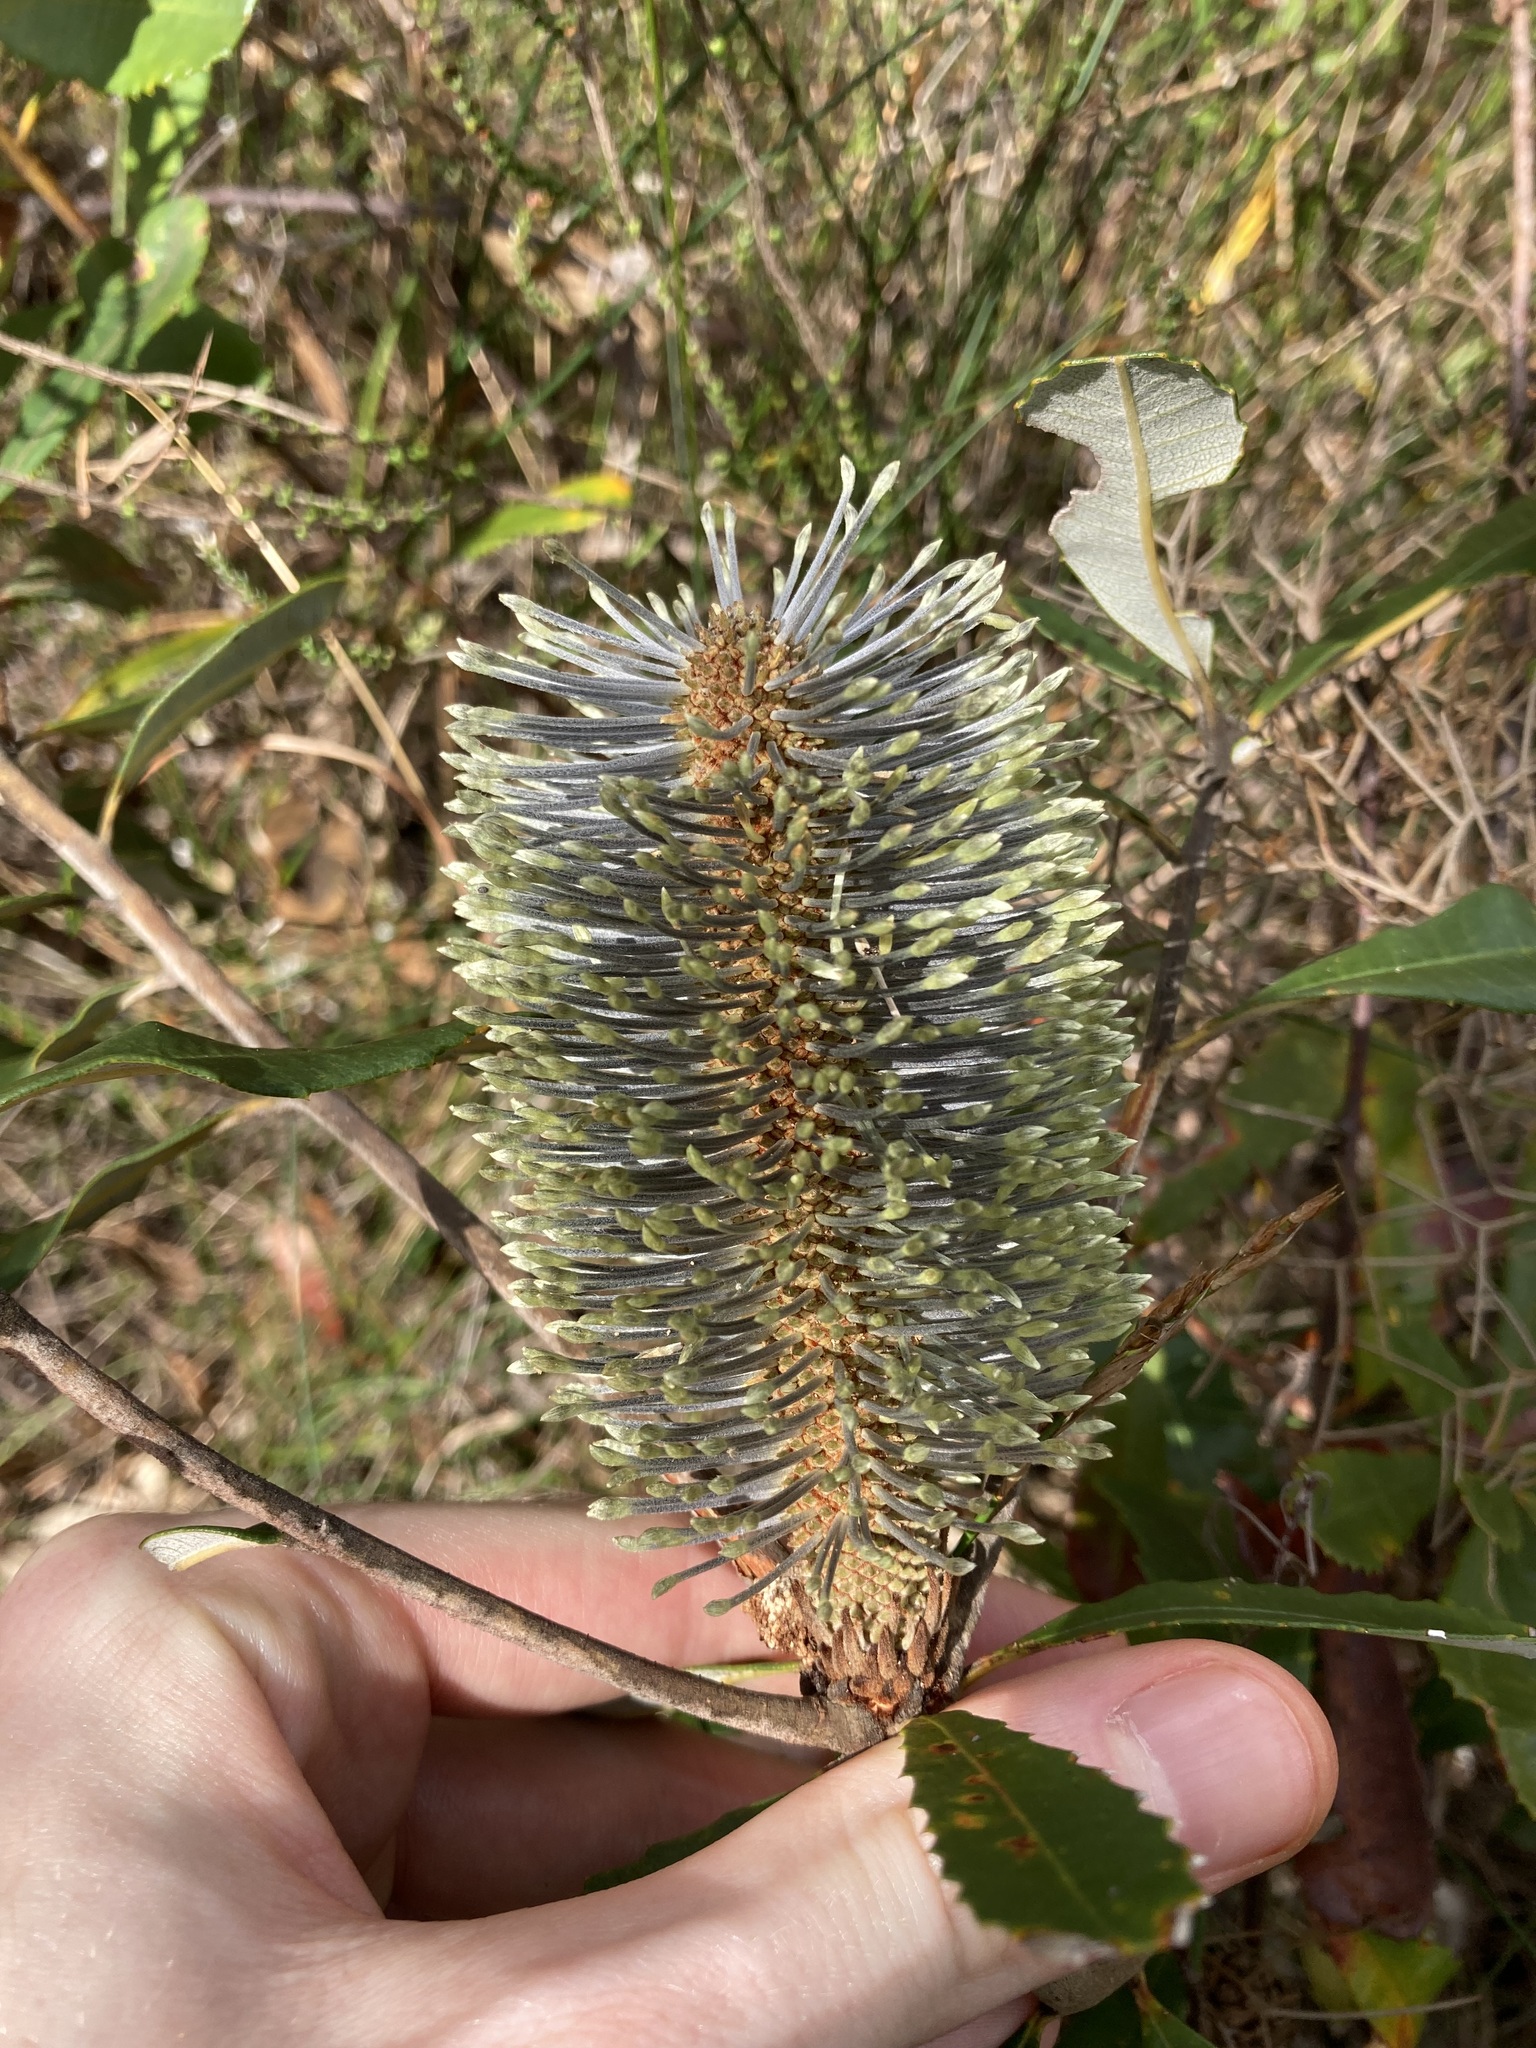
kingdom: Plantae
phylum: Tracheophyta
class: Magnoliopsida
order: Proteales
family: Proteaceae
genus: Banksia
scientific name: Banksia oblongifolia
